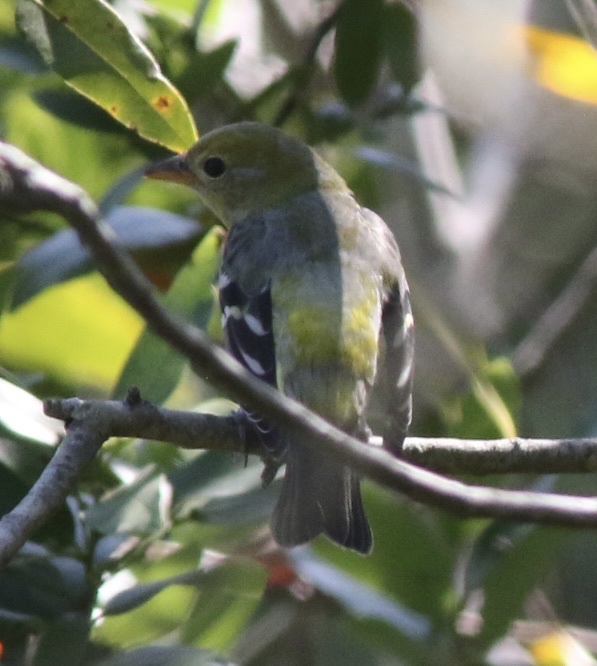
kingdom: Animalia
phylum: Chordata
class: Aves
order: Passeriformes
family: Cardinalidae
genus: Piranga
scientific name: Piranga ludoviciana
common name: Western tanager
